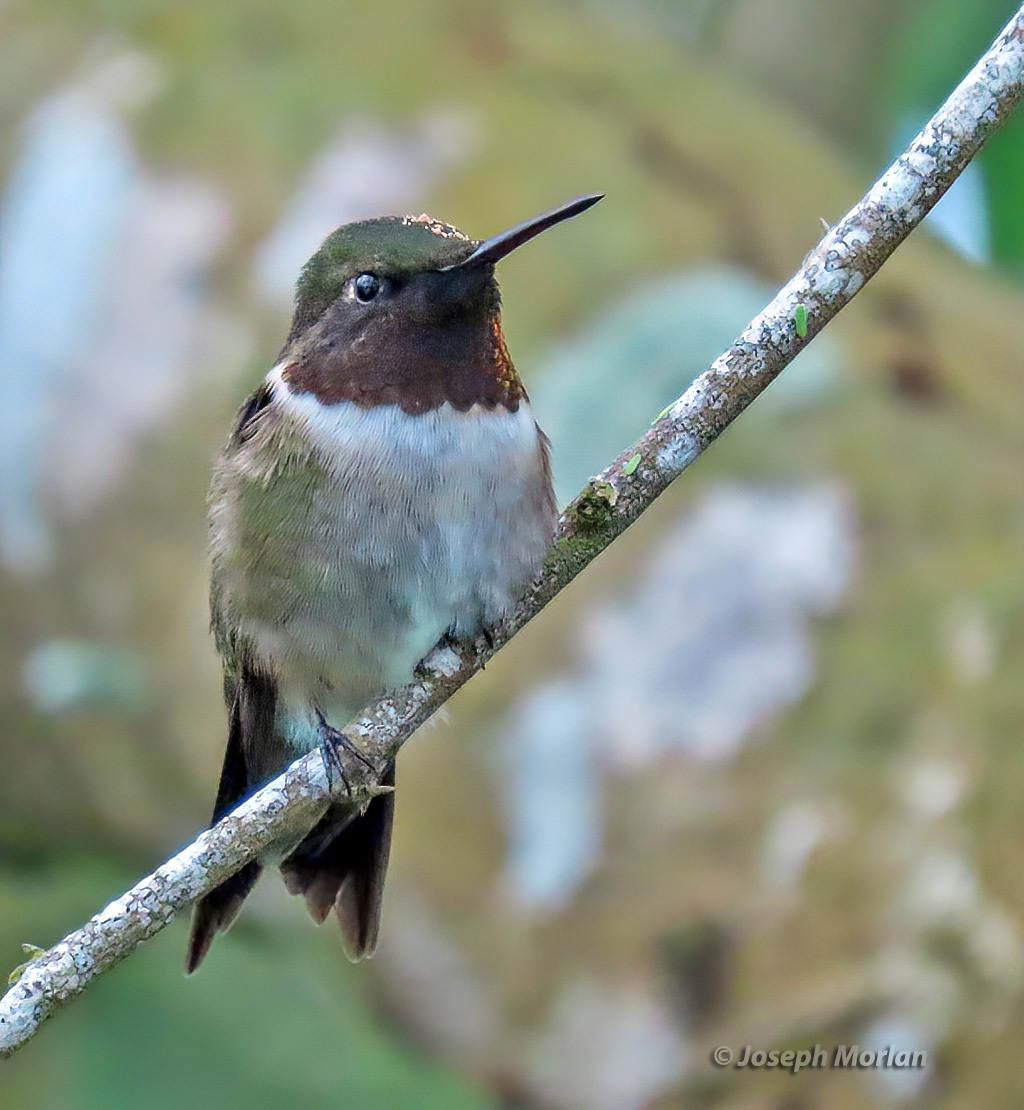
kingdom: Animalia
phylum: Chordata
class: Aves
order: Apodiformes
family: Trochilidae
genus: Archilochus
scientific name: Archilochus colubris
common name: Ruby-throated hummingbird
